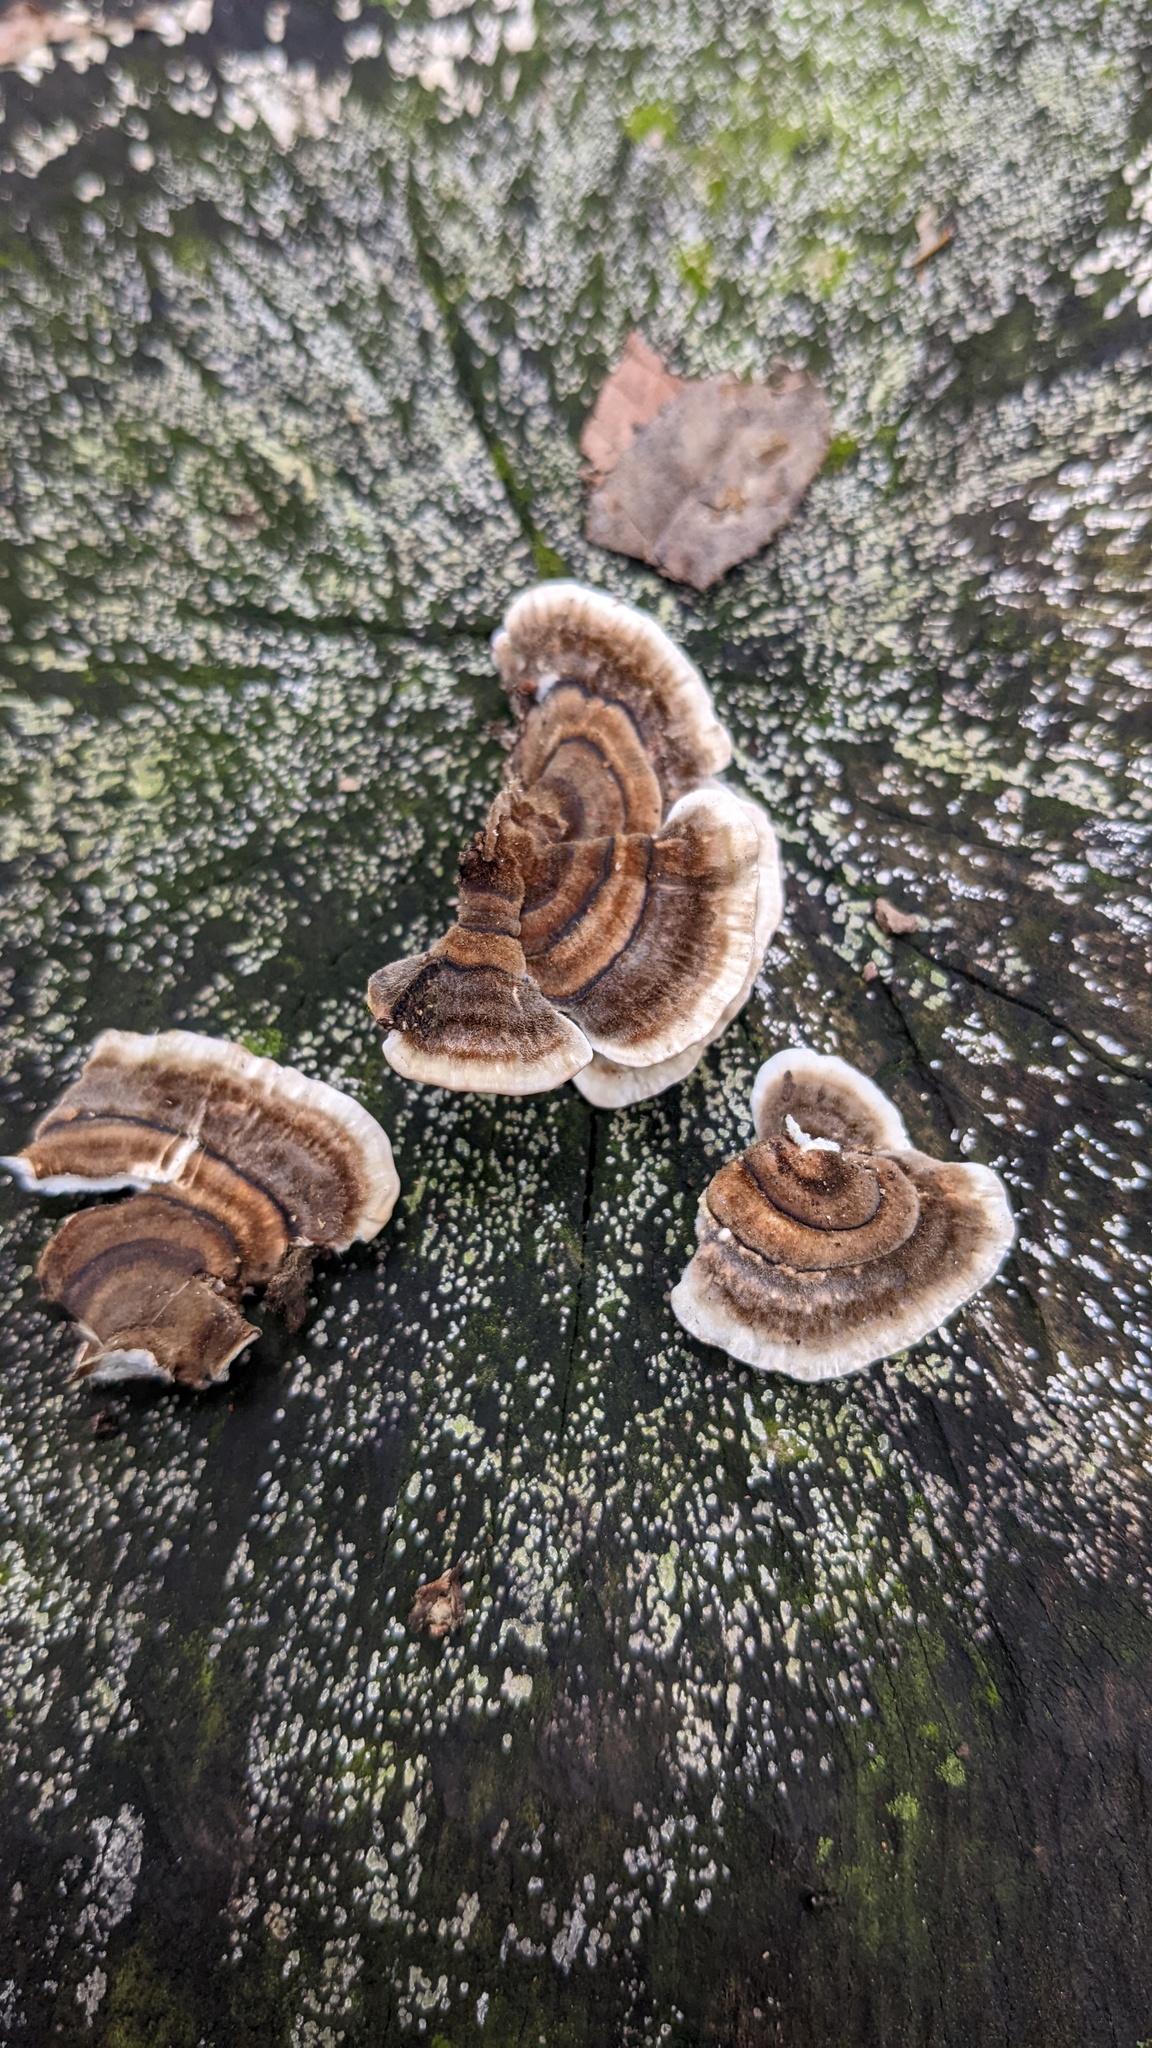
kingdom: Fungi
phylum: Basidiomycota
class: Agaricomycetes
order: Polyporales
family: Polyporaceae
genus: Trametes
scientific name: Trametes versicolor
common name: Turkeytail
